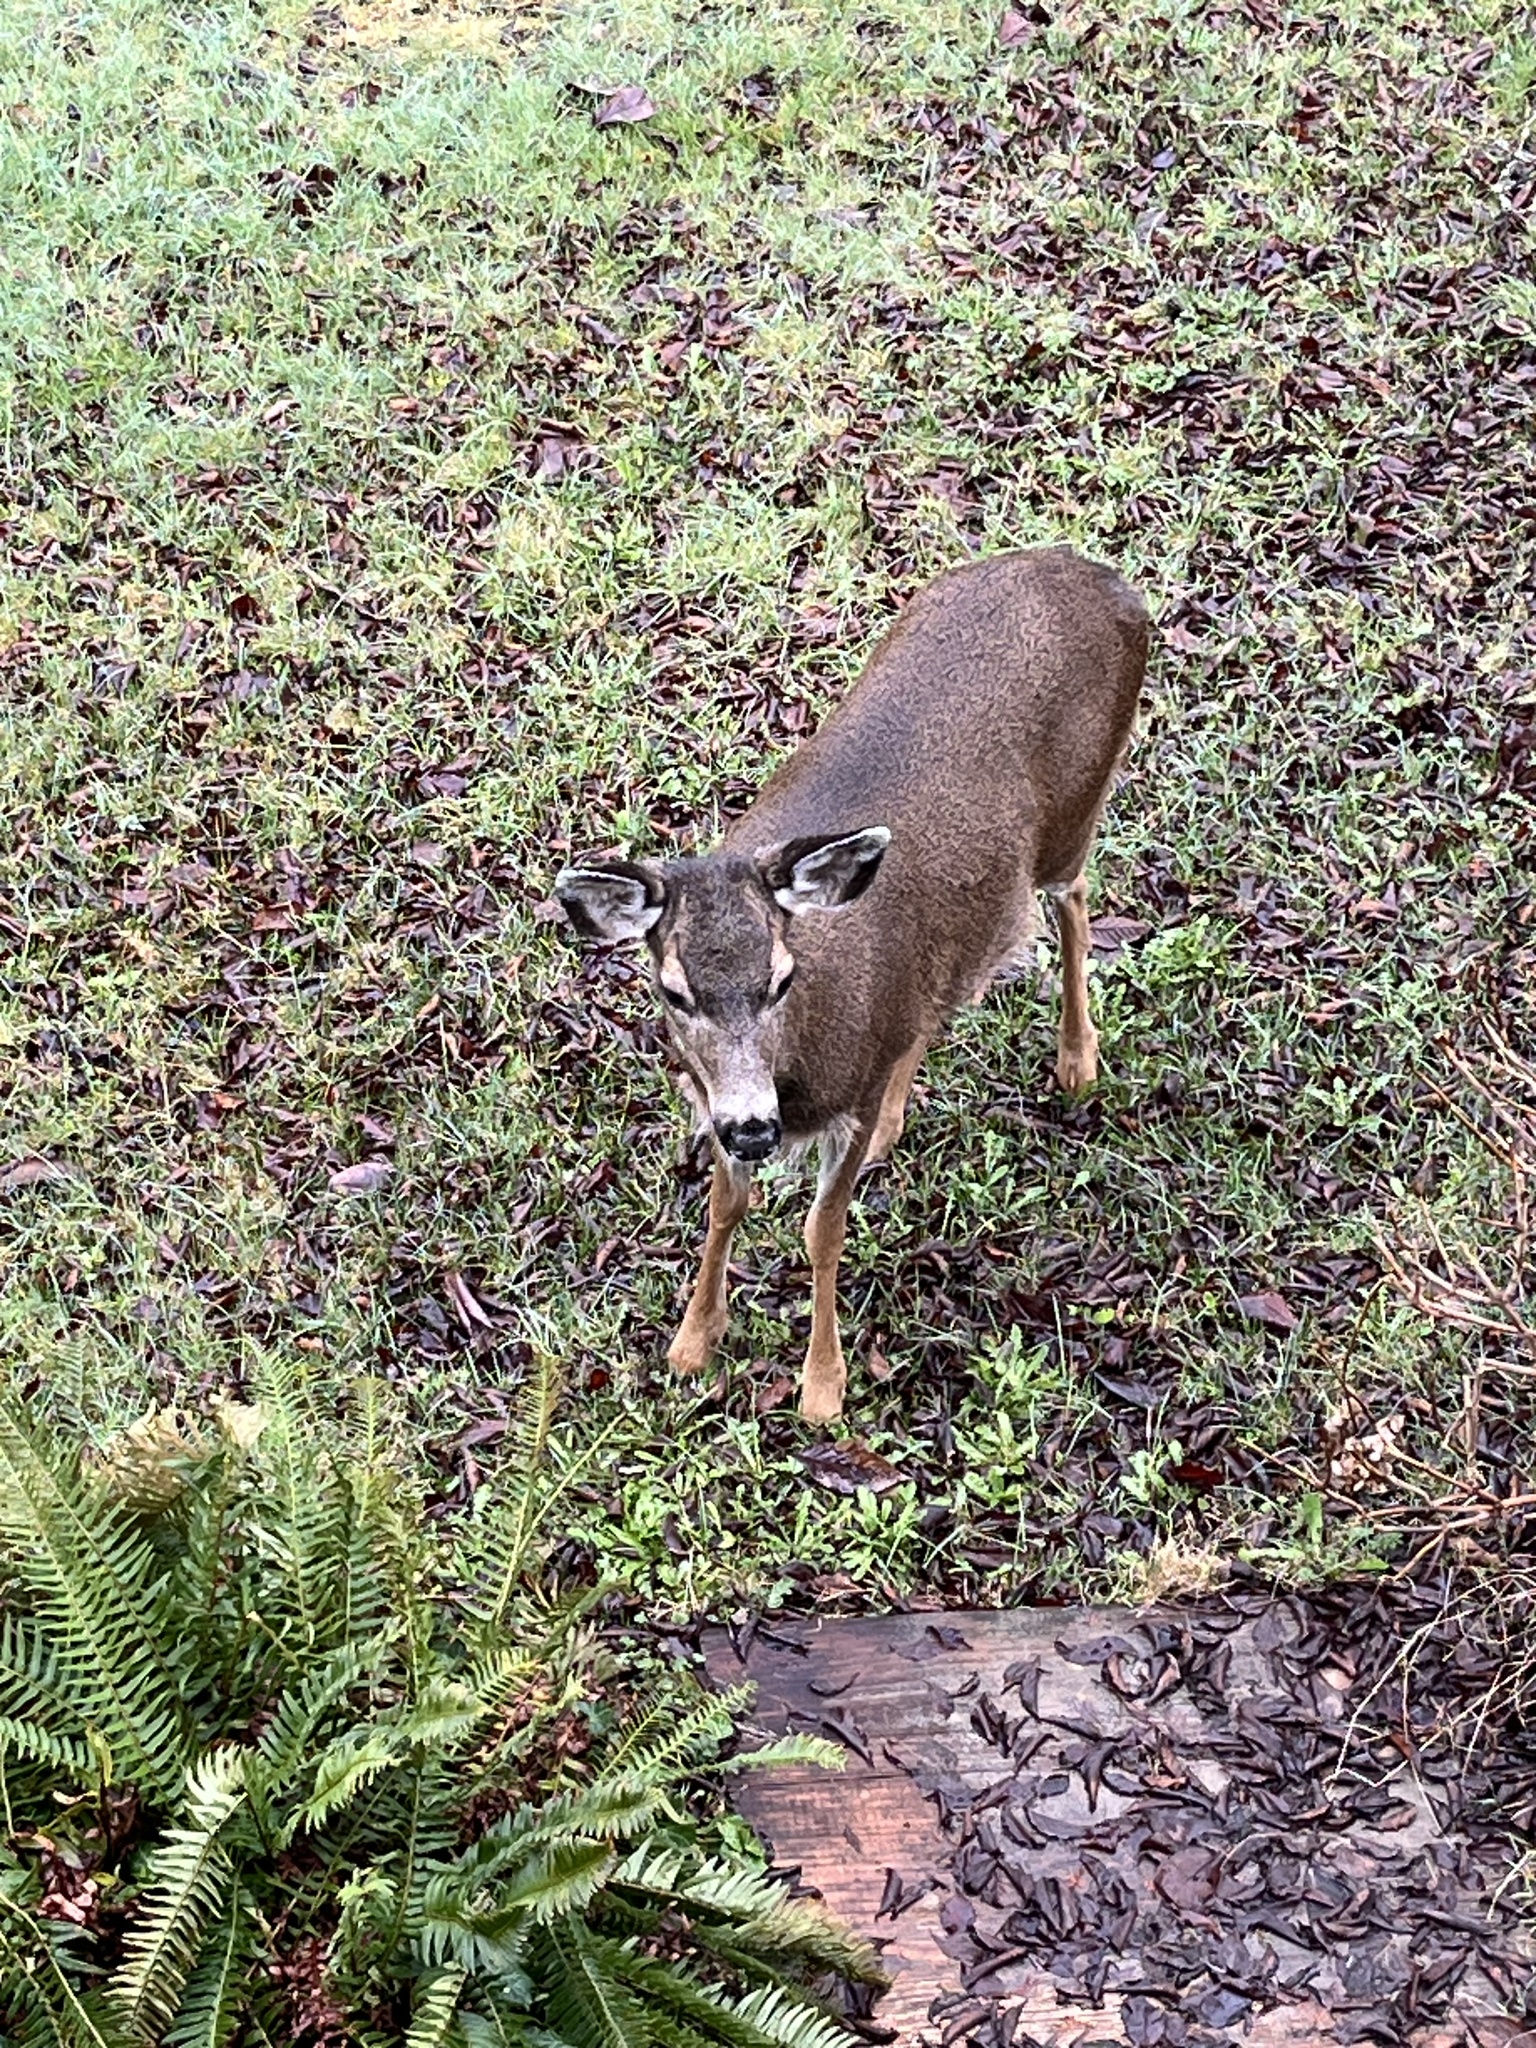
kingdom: Animalia
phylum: Chordata
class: Mammalia
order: Artiodactyla
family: Cervidae
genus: Odocoileus
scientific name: Odocoileus hemionus
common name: Mule deer
